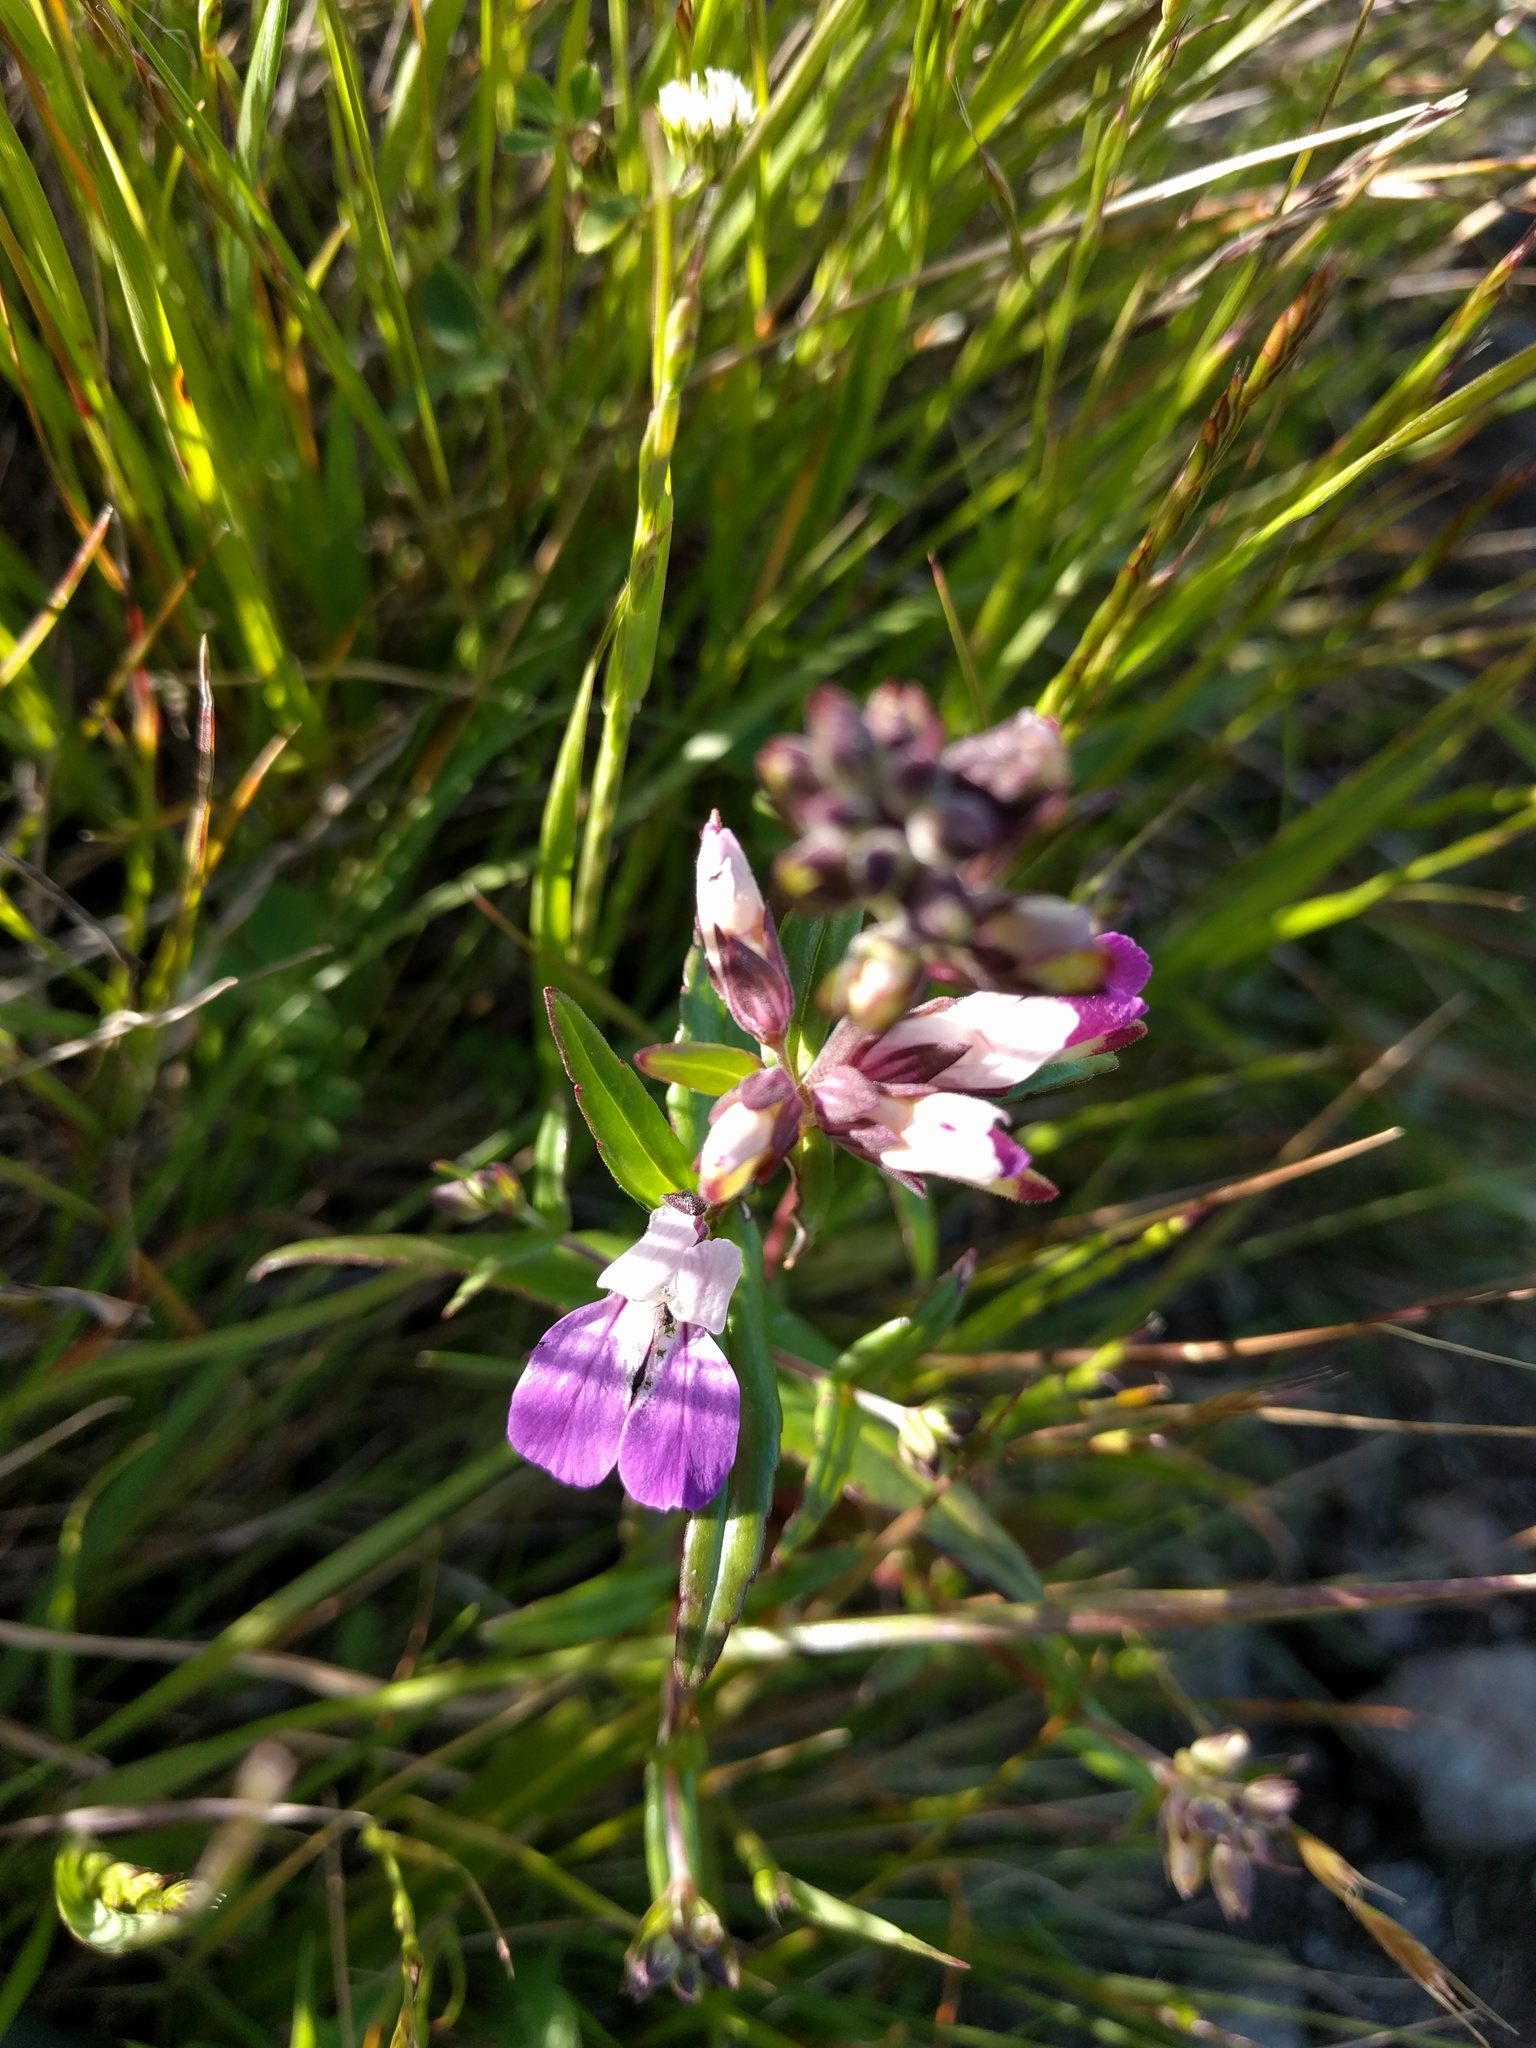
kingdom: Plantae
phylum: Tracheophyta
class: Magnoliopsida
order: Lamiales
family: Plantaginaceae
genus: Collinsia
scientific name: Collinsia heterophylla
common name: Chinese-houses
